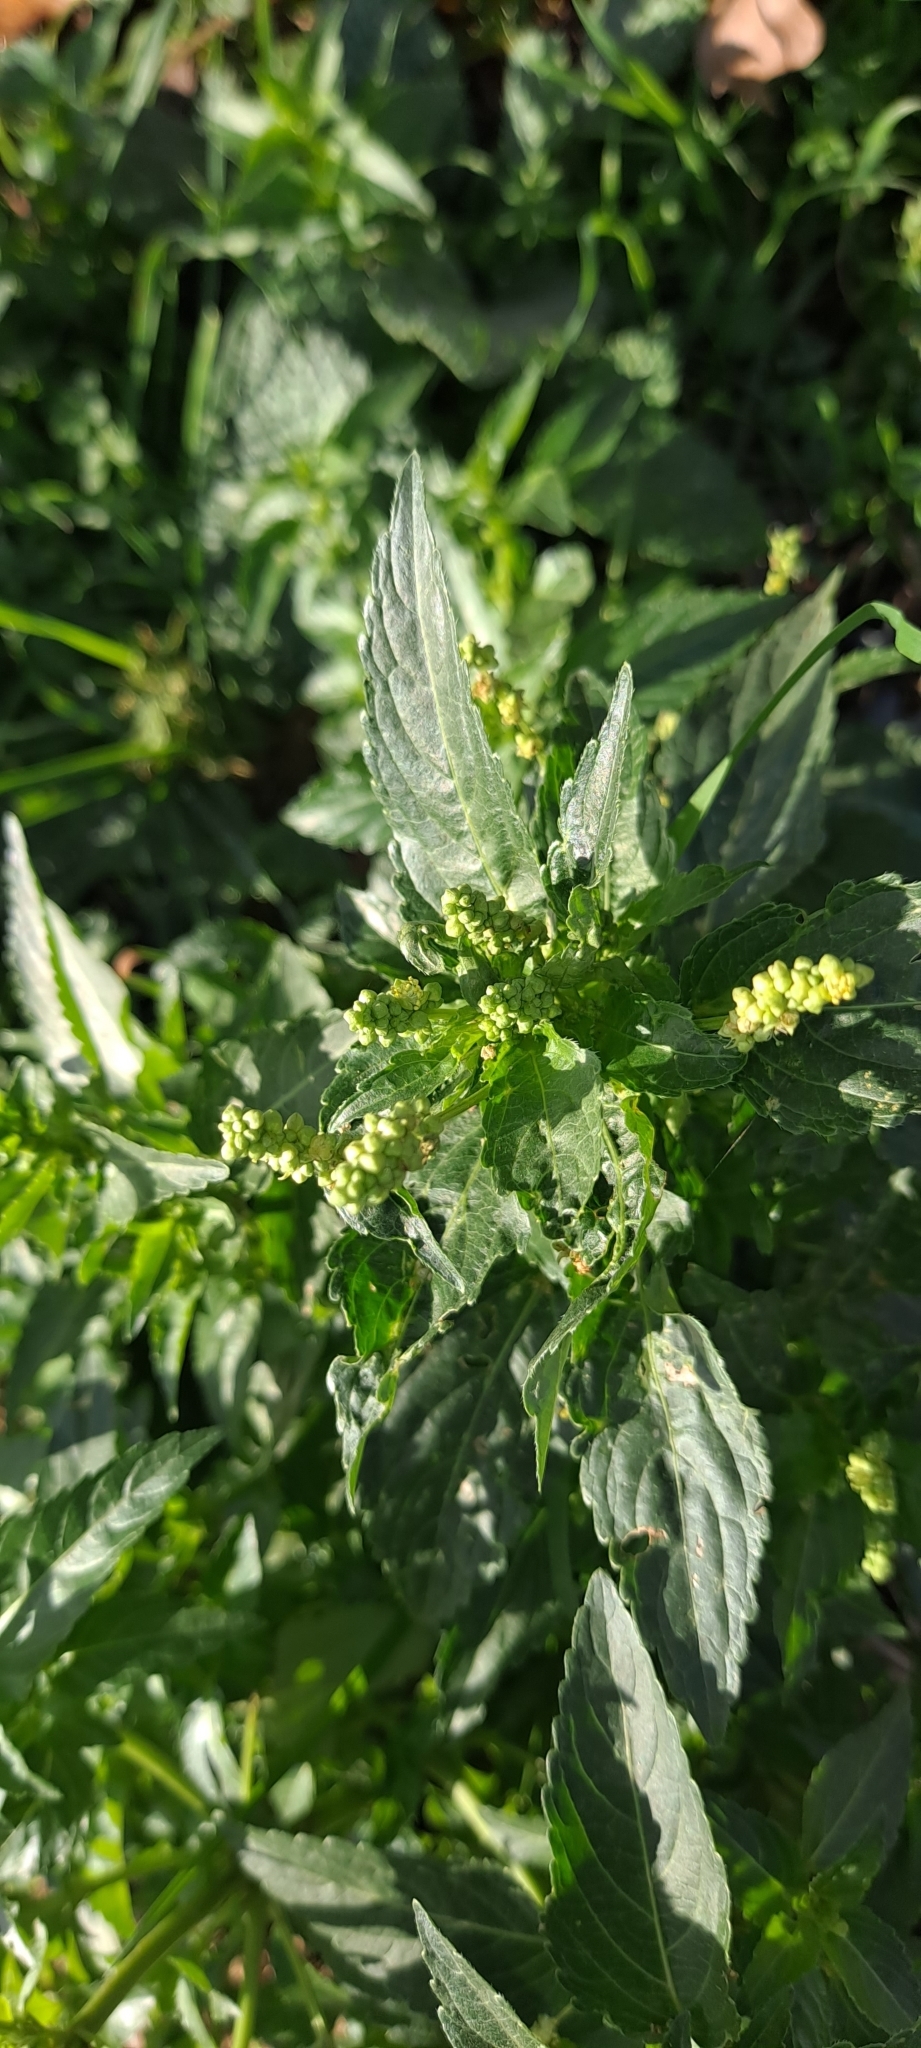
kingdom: Plantae
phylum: Tracheophyta
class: Magnoliopsida
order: Malpighiales
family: Euphorbiaceae
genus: Mercurialis
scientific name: Mercurialis annua
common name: Annual mercury
